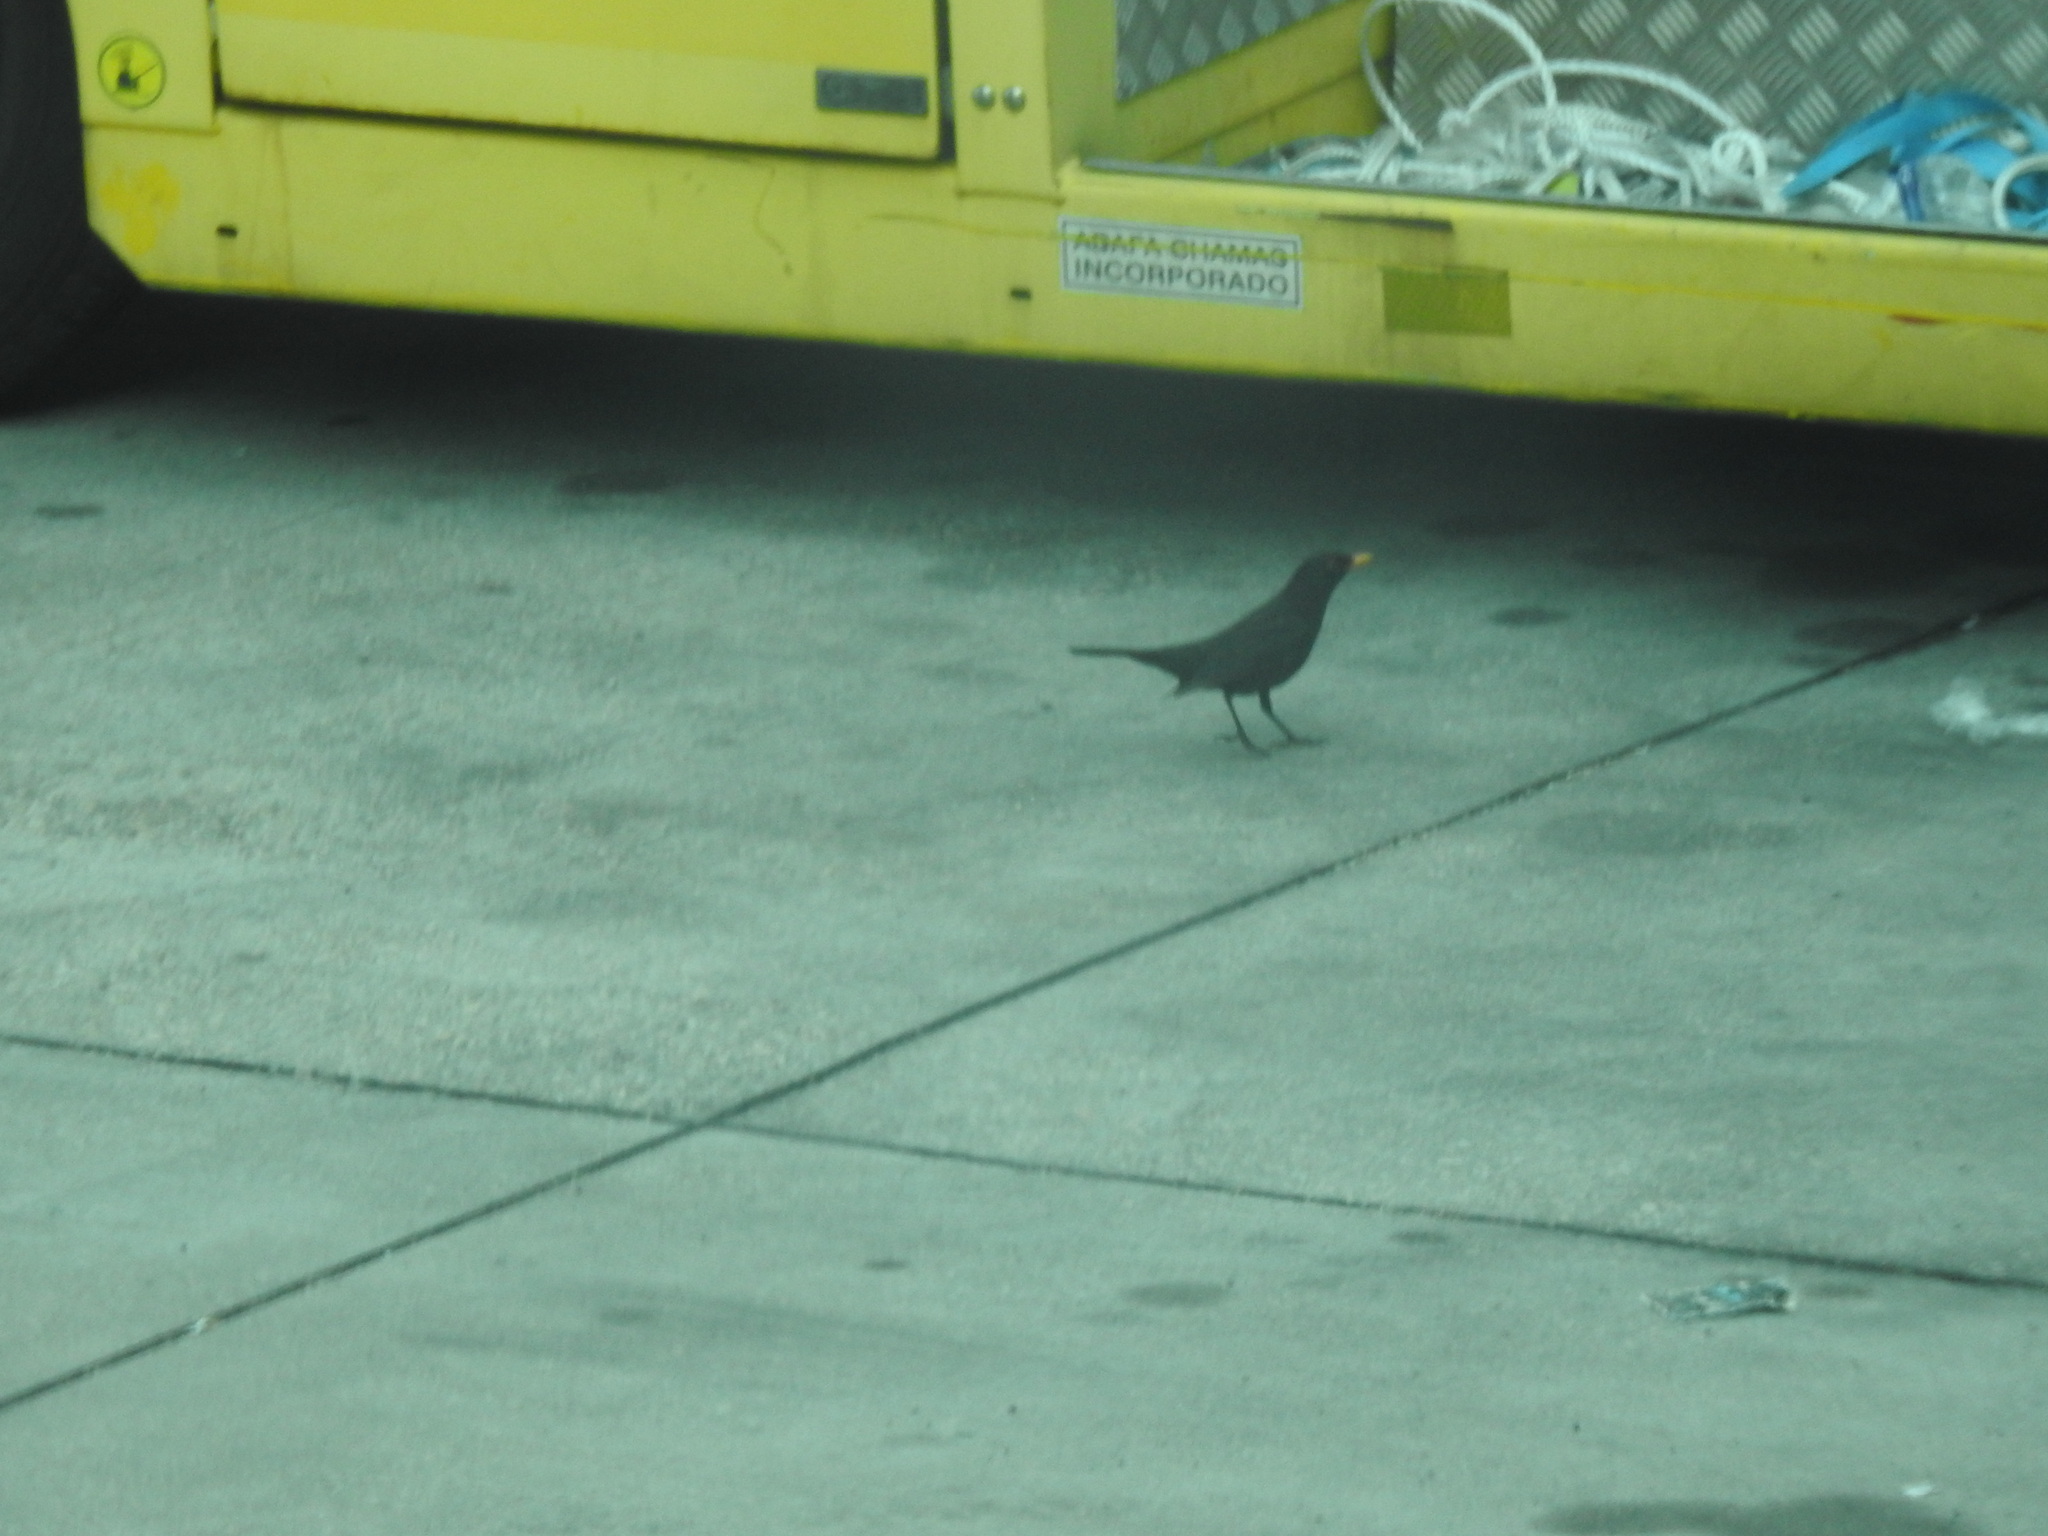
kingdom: Animalia
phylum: Chordata
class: Aves
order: Passeriformes
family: Turdidae
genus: Turdus
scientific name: Turdus merula
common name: Common blackbird
